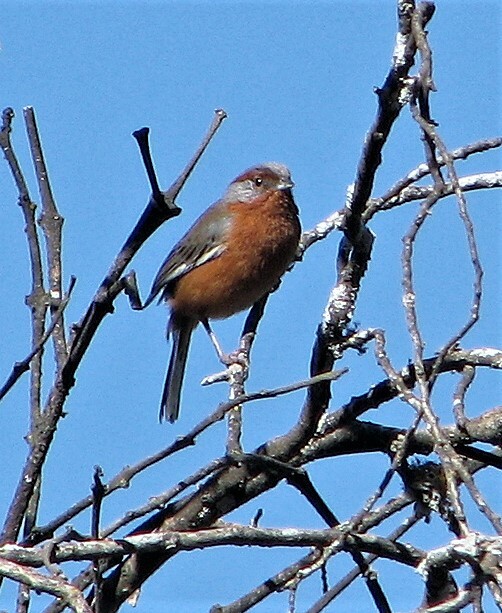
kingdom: Animalia
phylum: Chordata
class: Aves
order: Passeriformes
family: Thraupidae
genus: Microspingus
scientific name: Microspingus erythrophrys
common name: Rusty-browed warbling-finch
